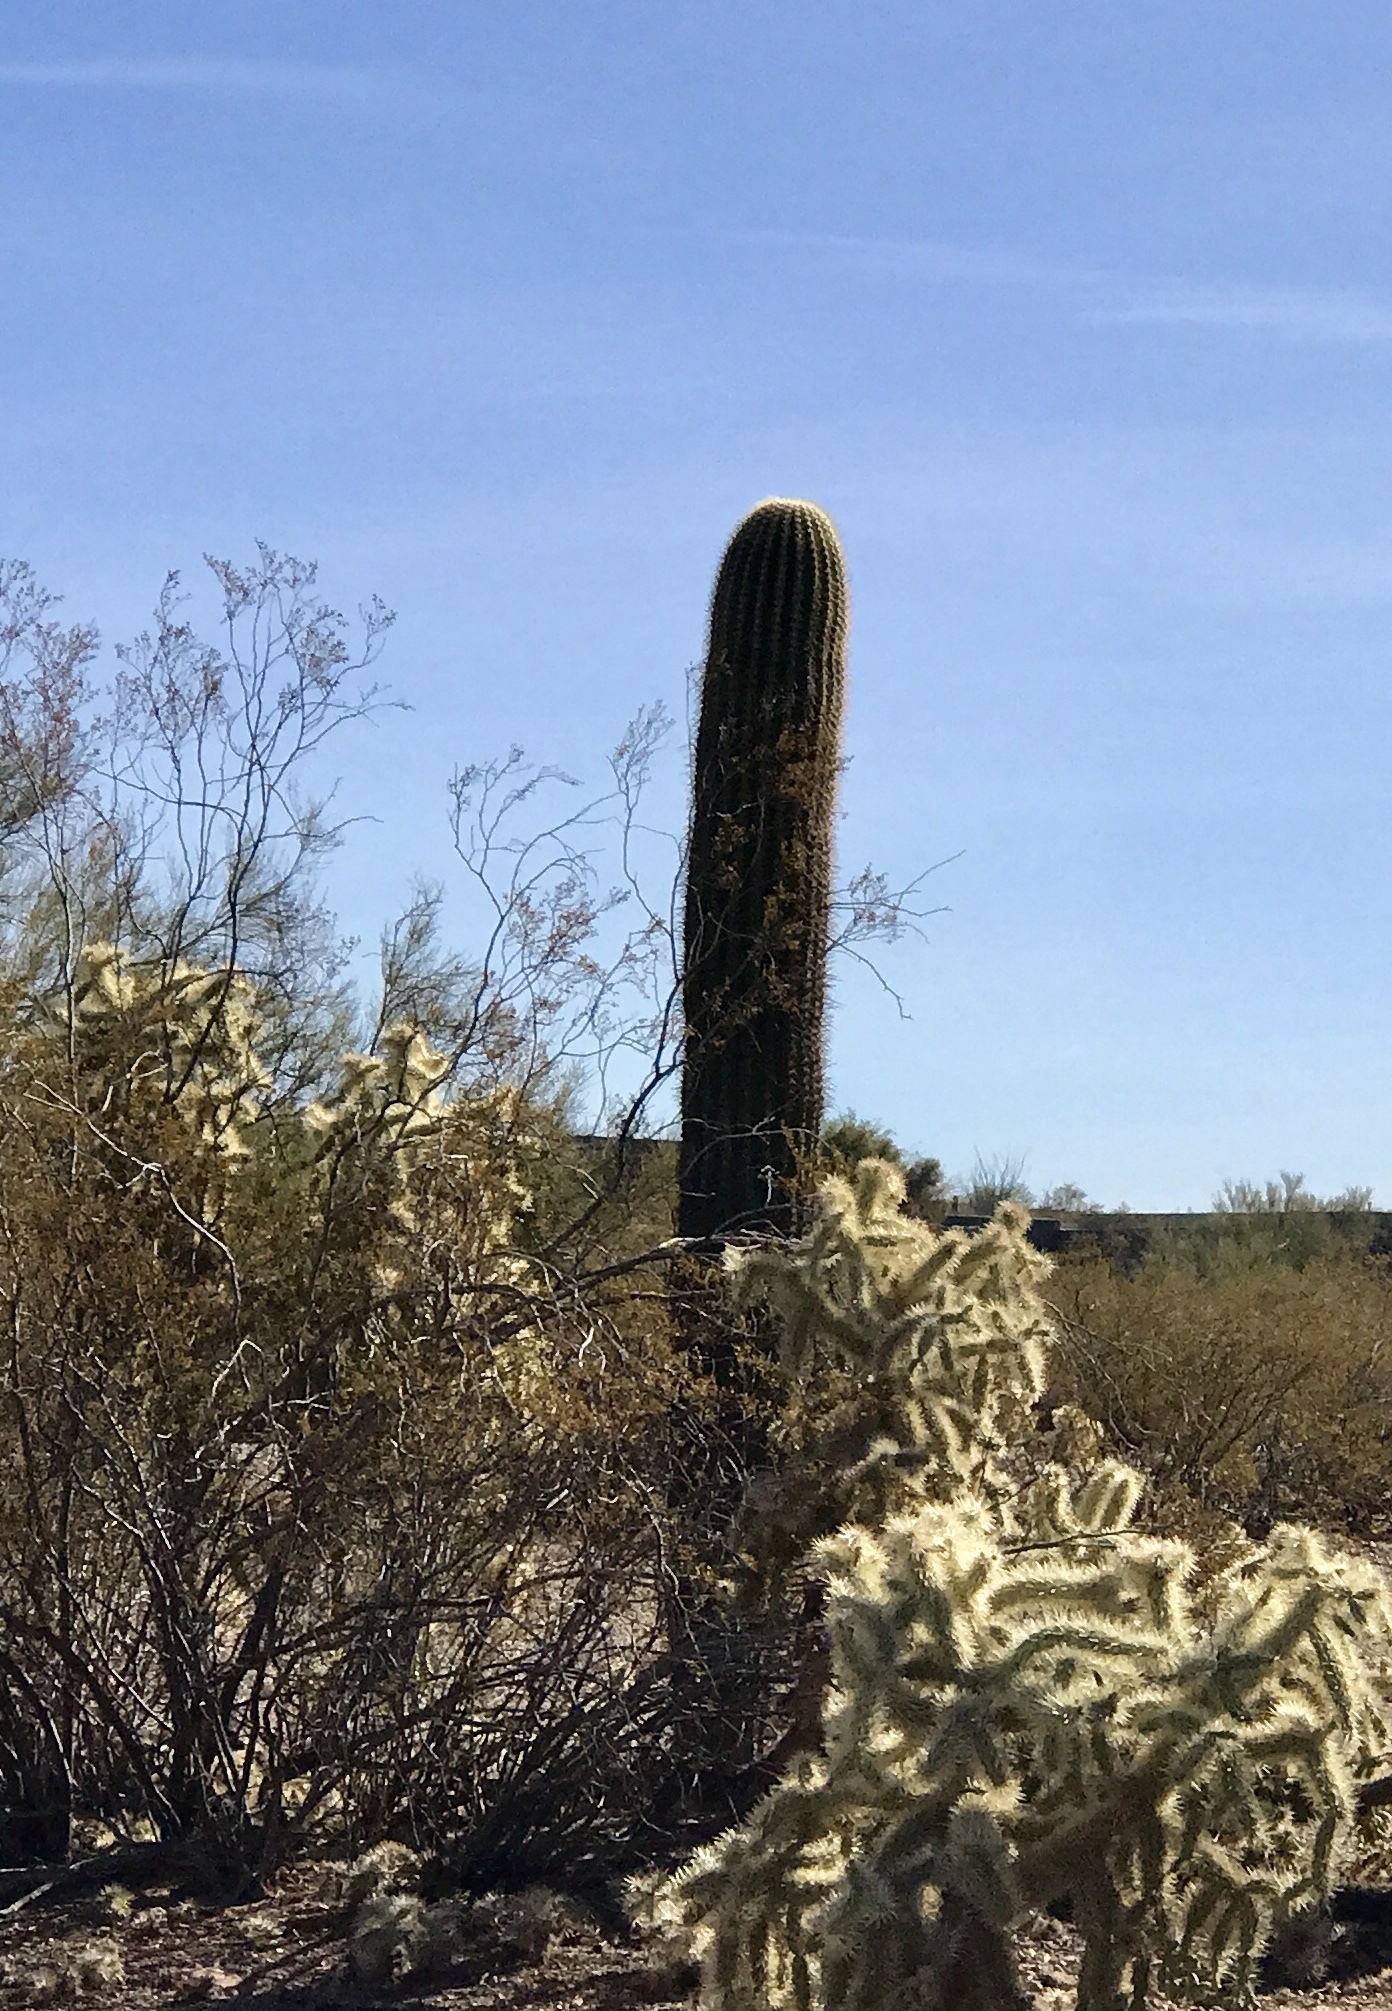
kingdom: Plantae
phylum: Tracheophyta
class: Magnoliopsida
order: Caryophyllales
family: Cactaceae
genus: Carnegiea
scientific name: Carnegiea gigantea
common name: Saguaro
